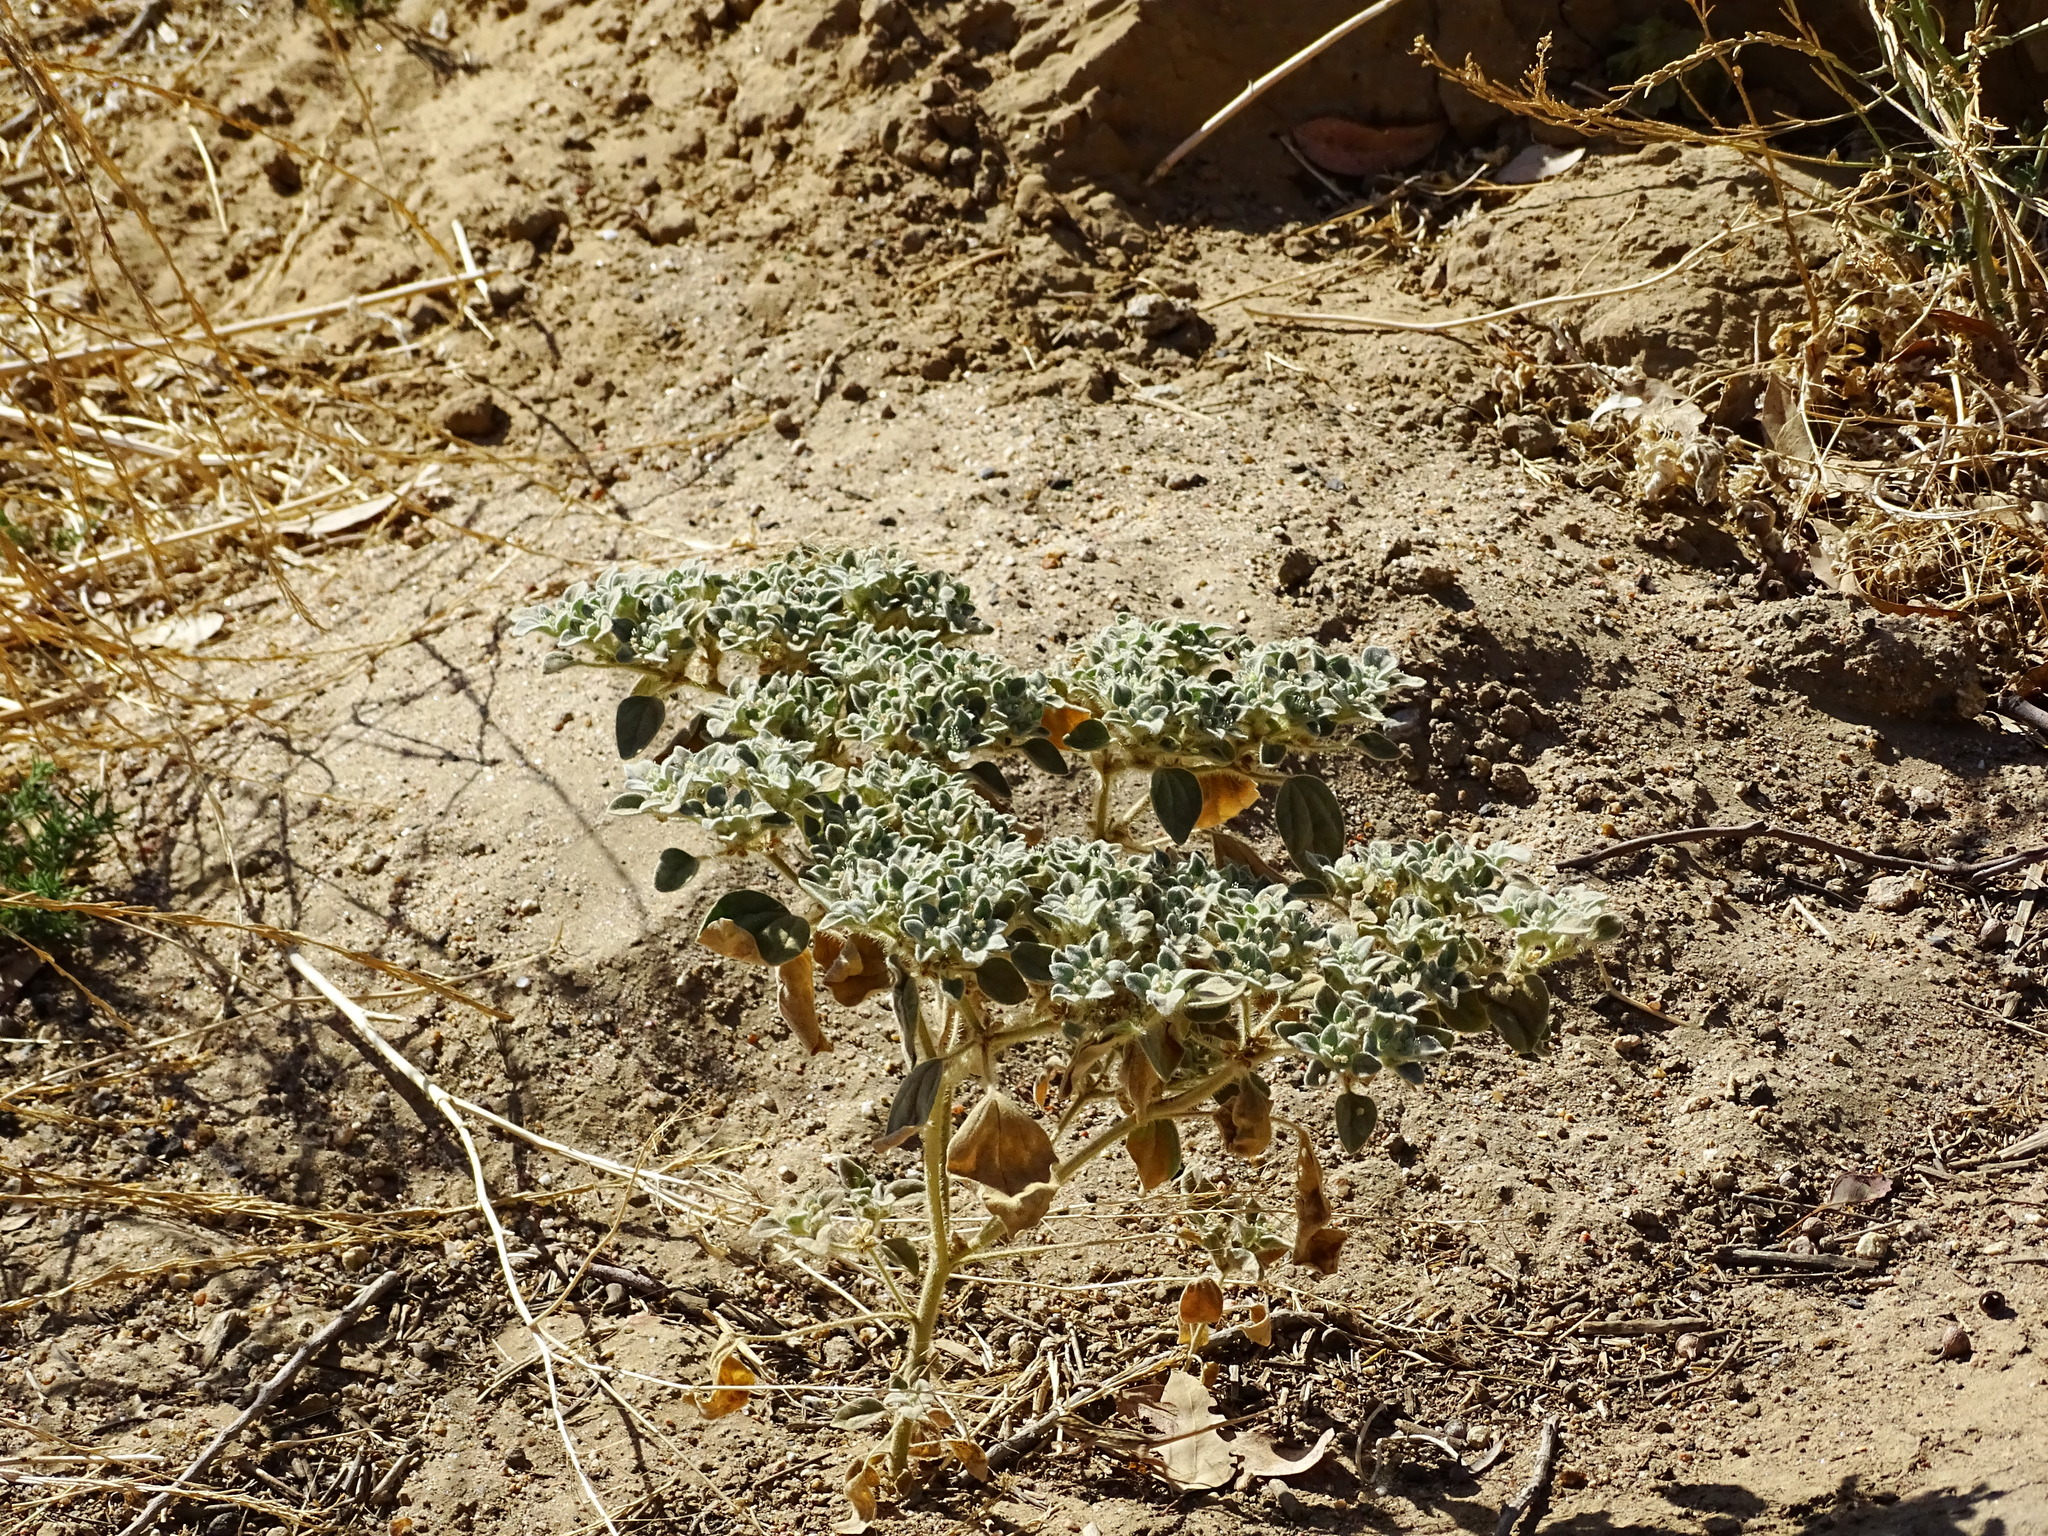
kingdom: Plantae
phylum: Tracheophyta
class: Magnoliopsida
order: Malpighiales
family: Euphorbiaceae
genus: Croton
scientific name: Croton setiger
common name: Dove weed
